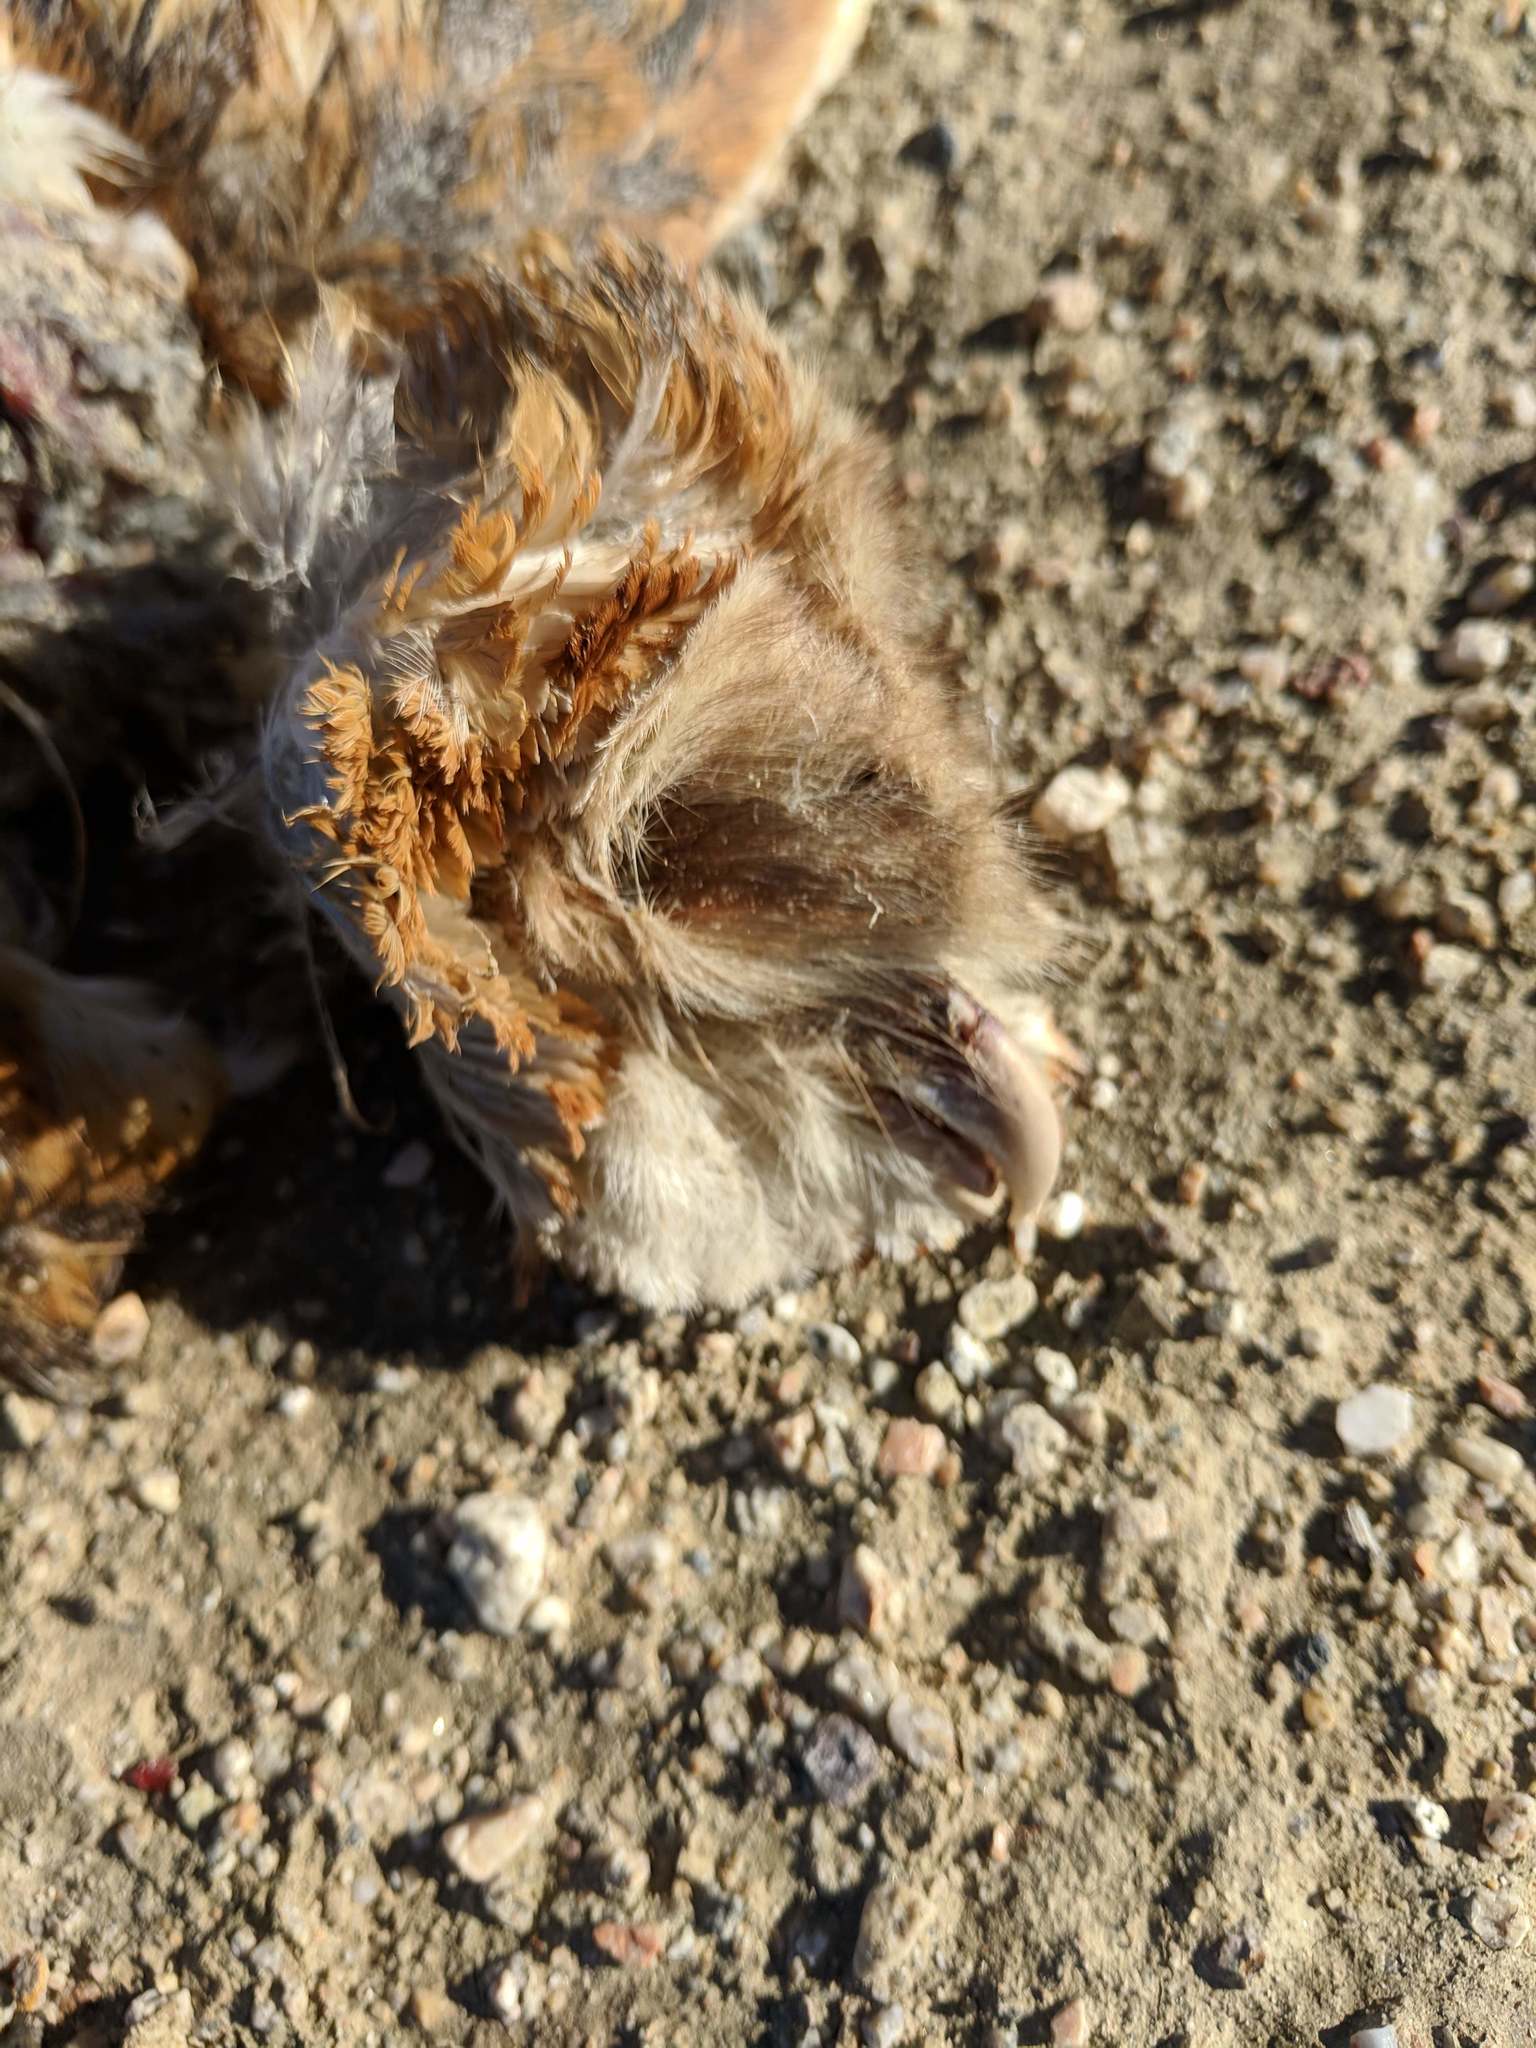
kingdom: Animalia
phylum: Chordata
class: Aves
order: Strigiformes
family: Tytonidae
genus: Tyto
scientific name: Tyto alba
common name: Barn owl
